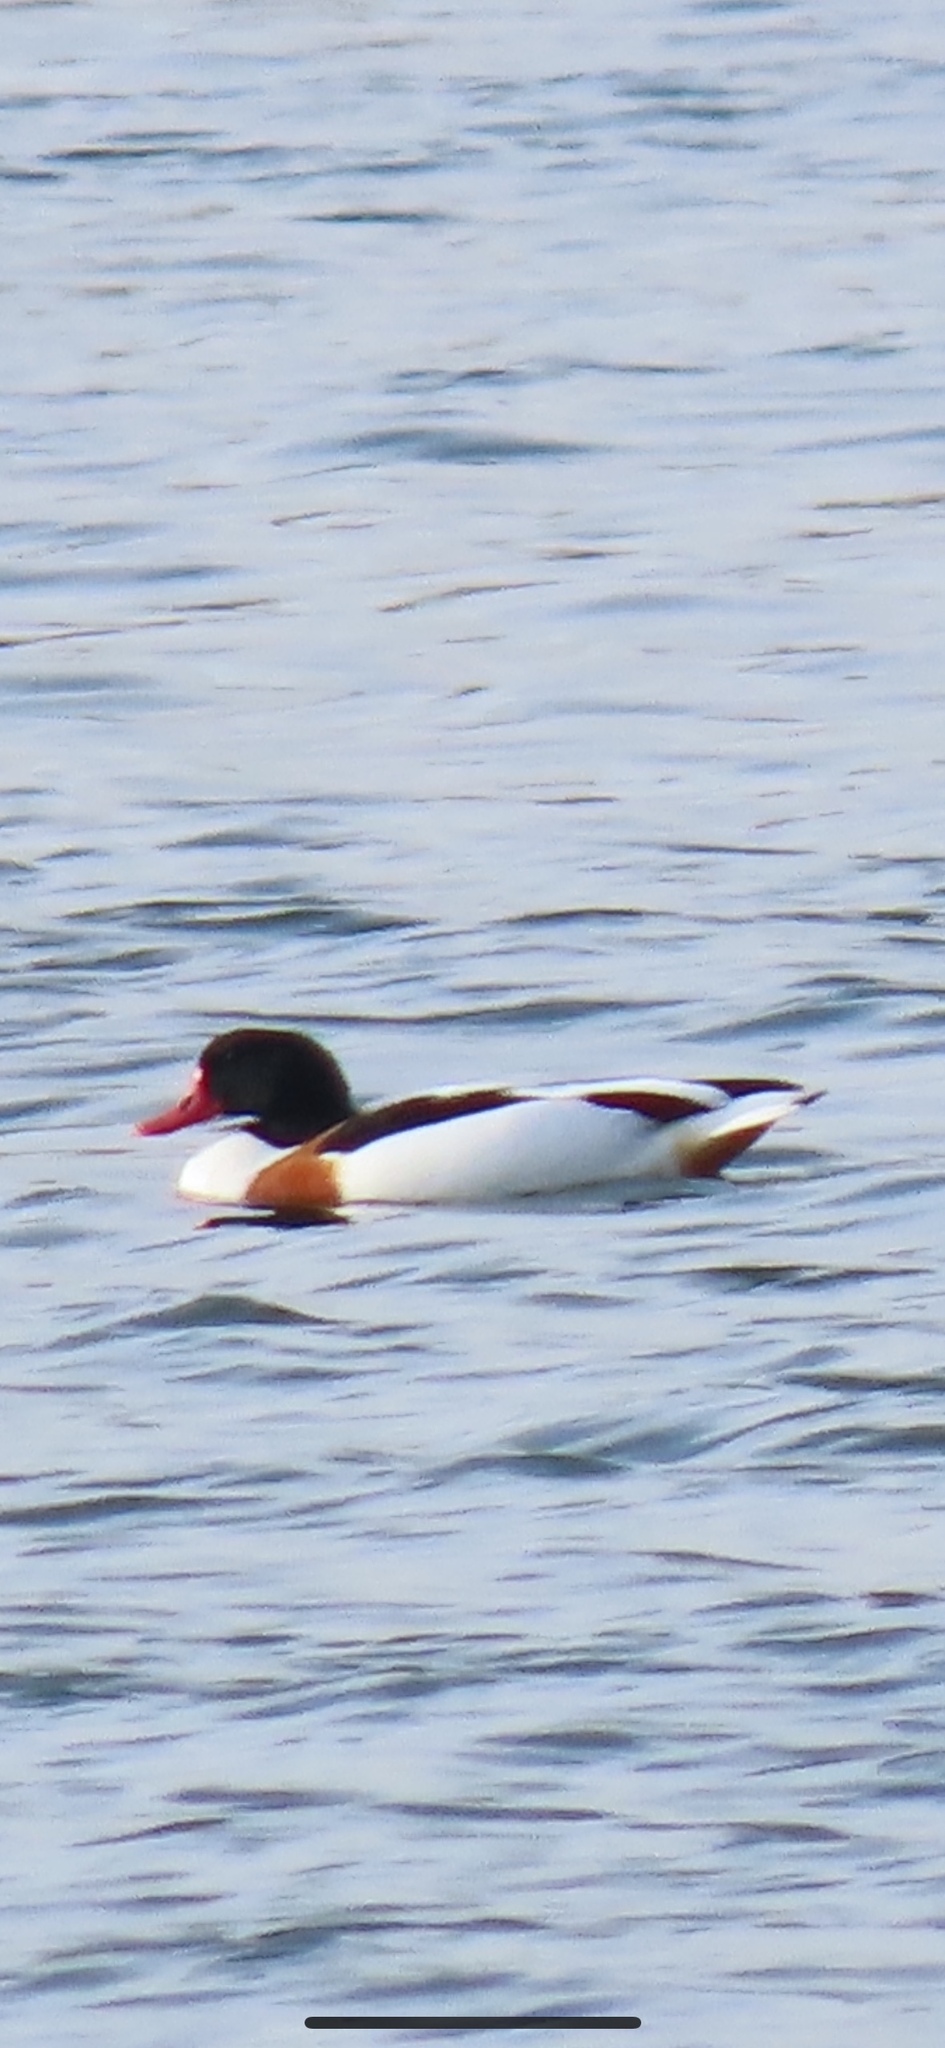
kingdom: Animalia
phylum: Chordata
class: Aves
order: Anseriformes
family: Anatidae
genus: Tadorna
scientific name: Tadorna tadorna
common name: Common shelduck
